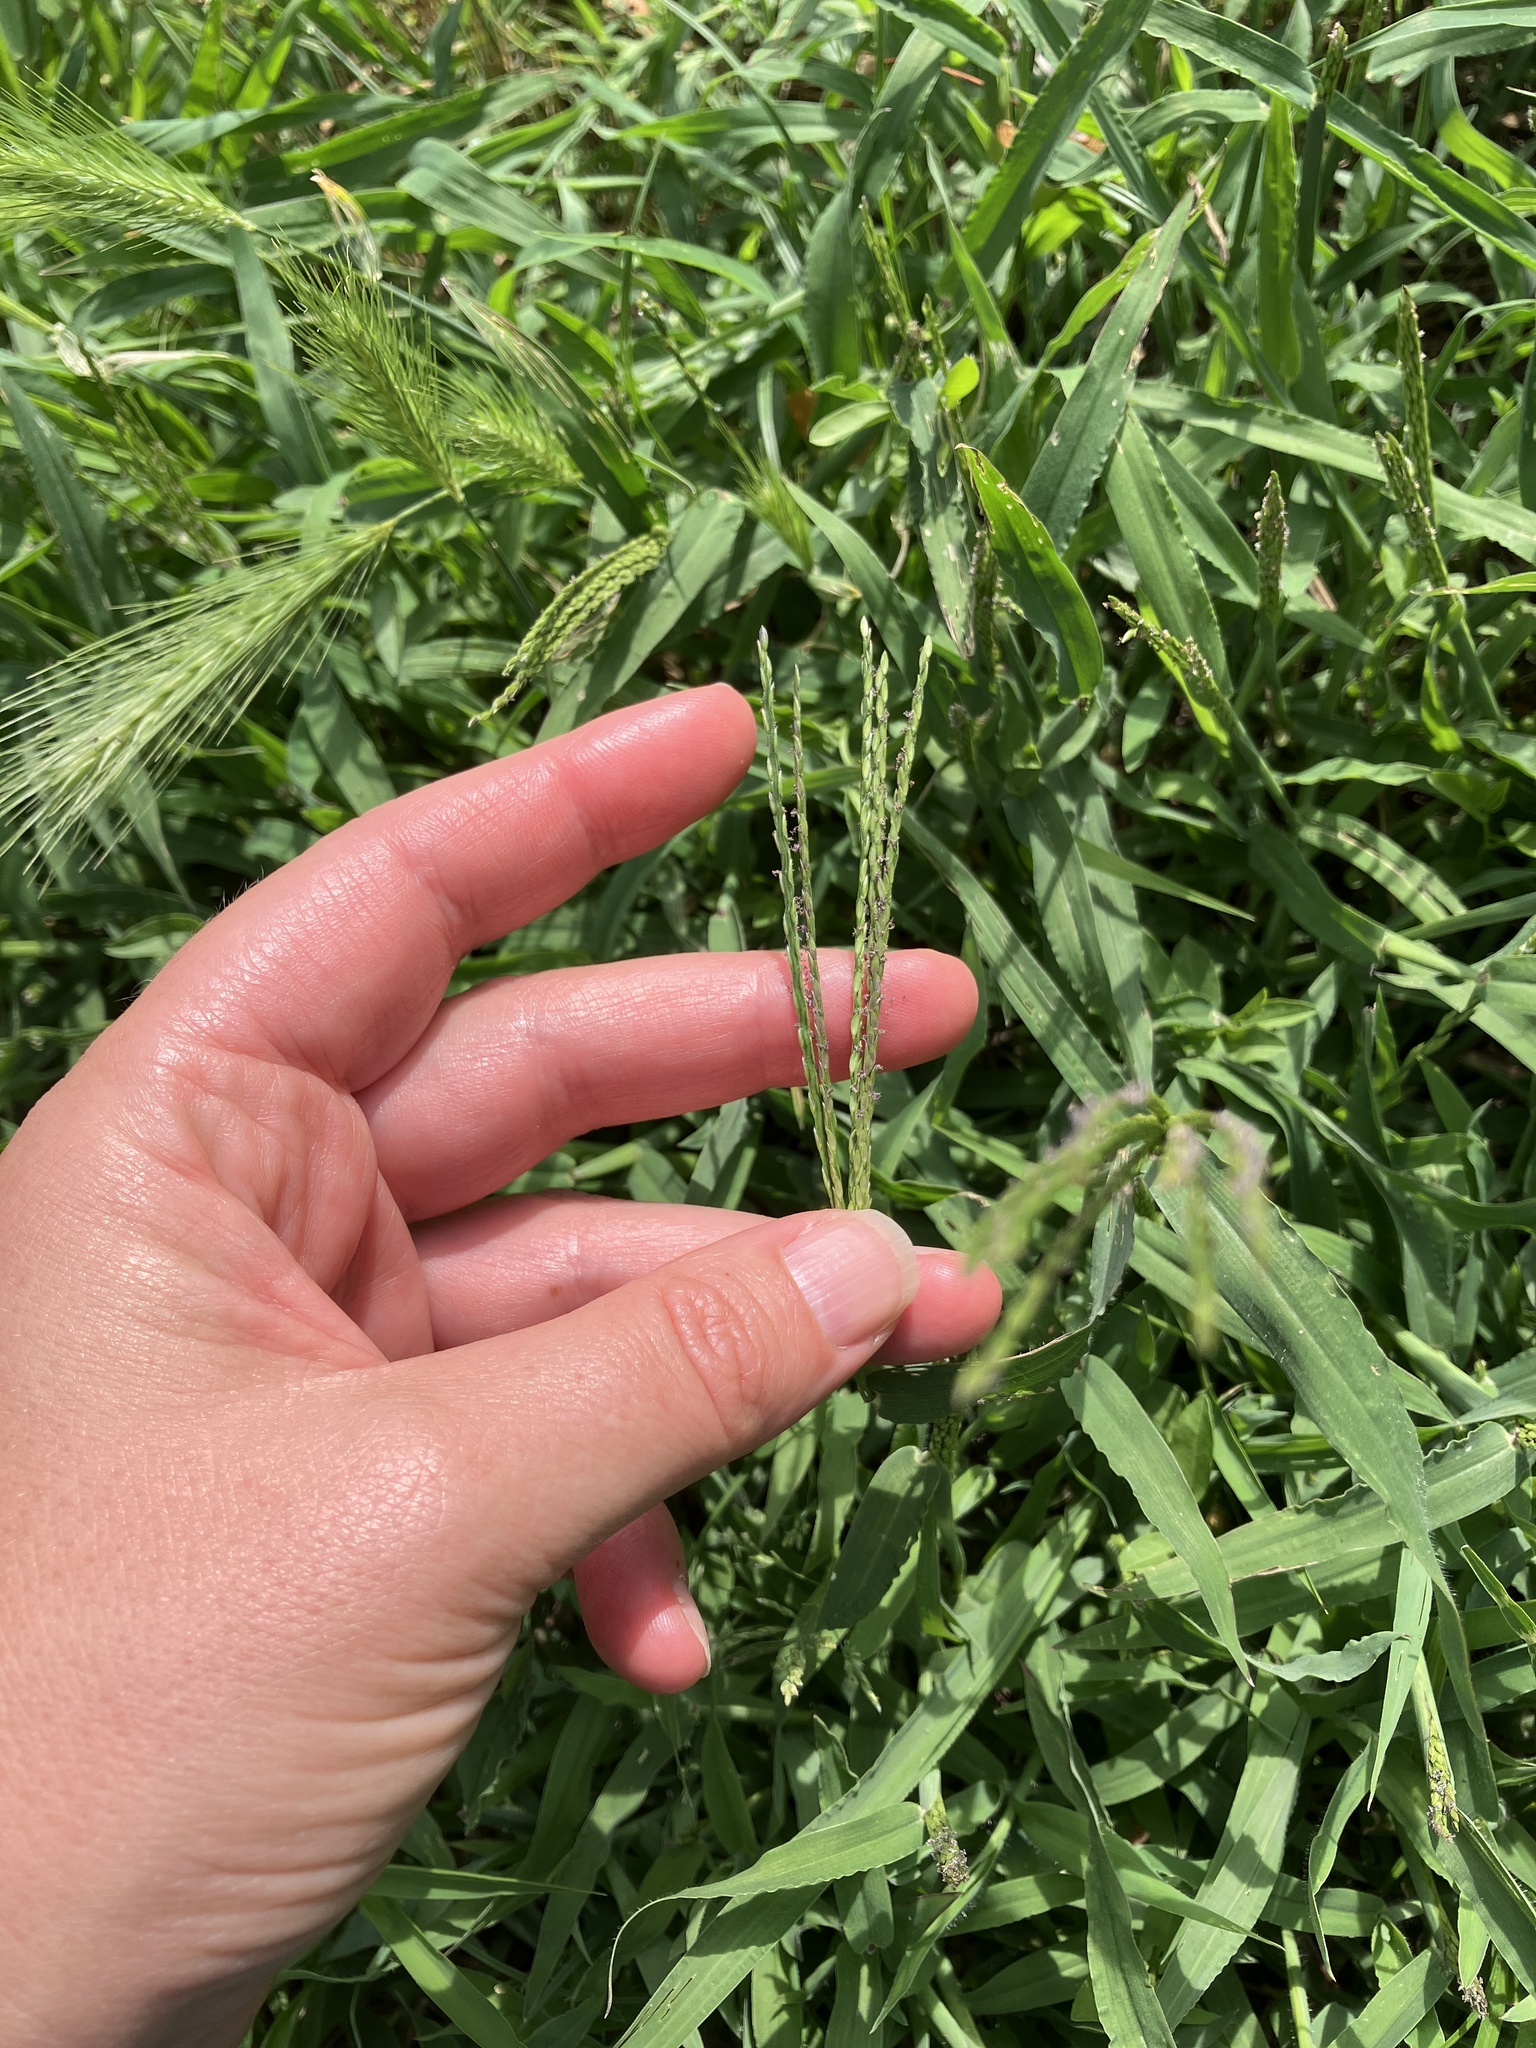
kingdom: Plantae
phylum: Tracheophyta
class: Liliopsida
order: Poales
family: Poaceae
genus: Digitaria
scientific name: Digitaria sanguinalis
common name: Hairy crabgrass
